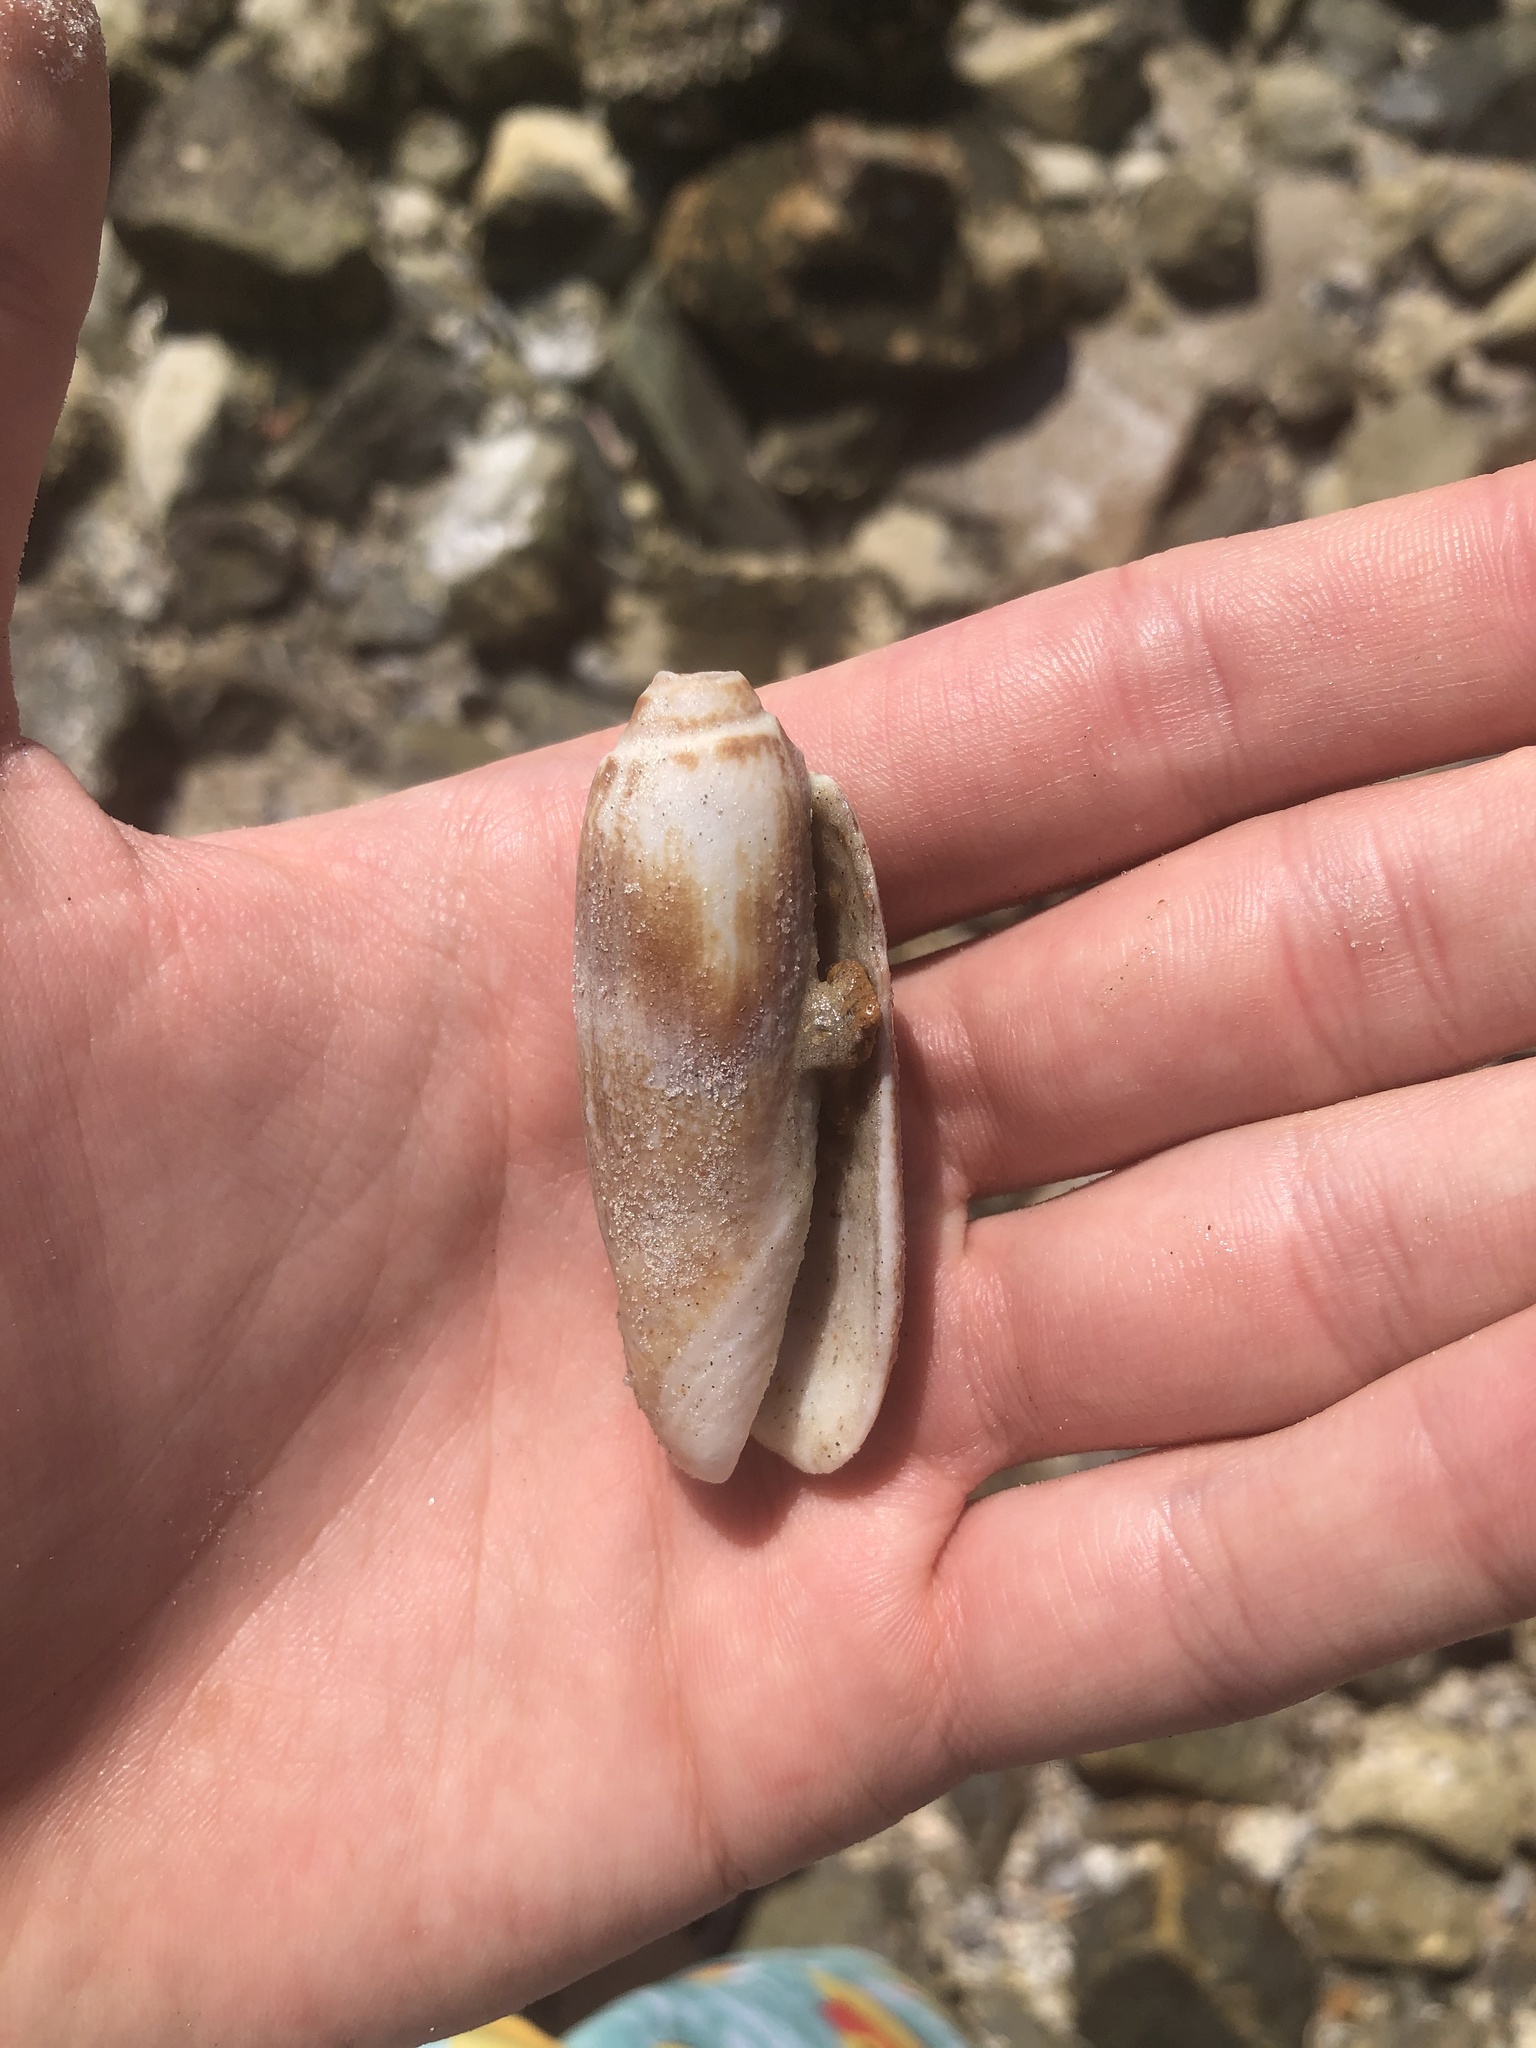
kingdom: Animalia
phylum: Mollusca
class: Gastropoda
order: Neogastropoda
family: Olividae
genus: Oliva
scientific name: Oliva sayana
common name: Lettered olive
